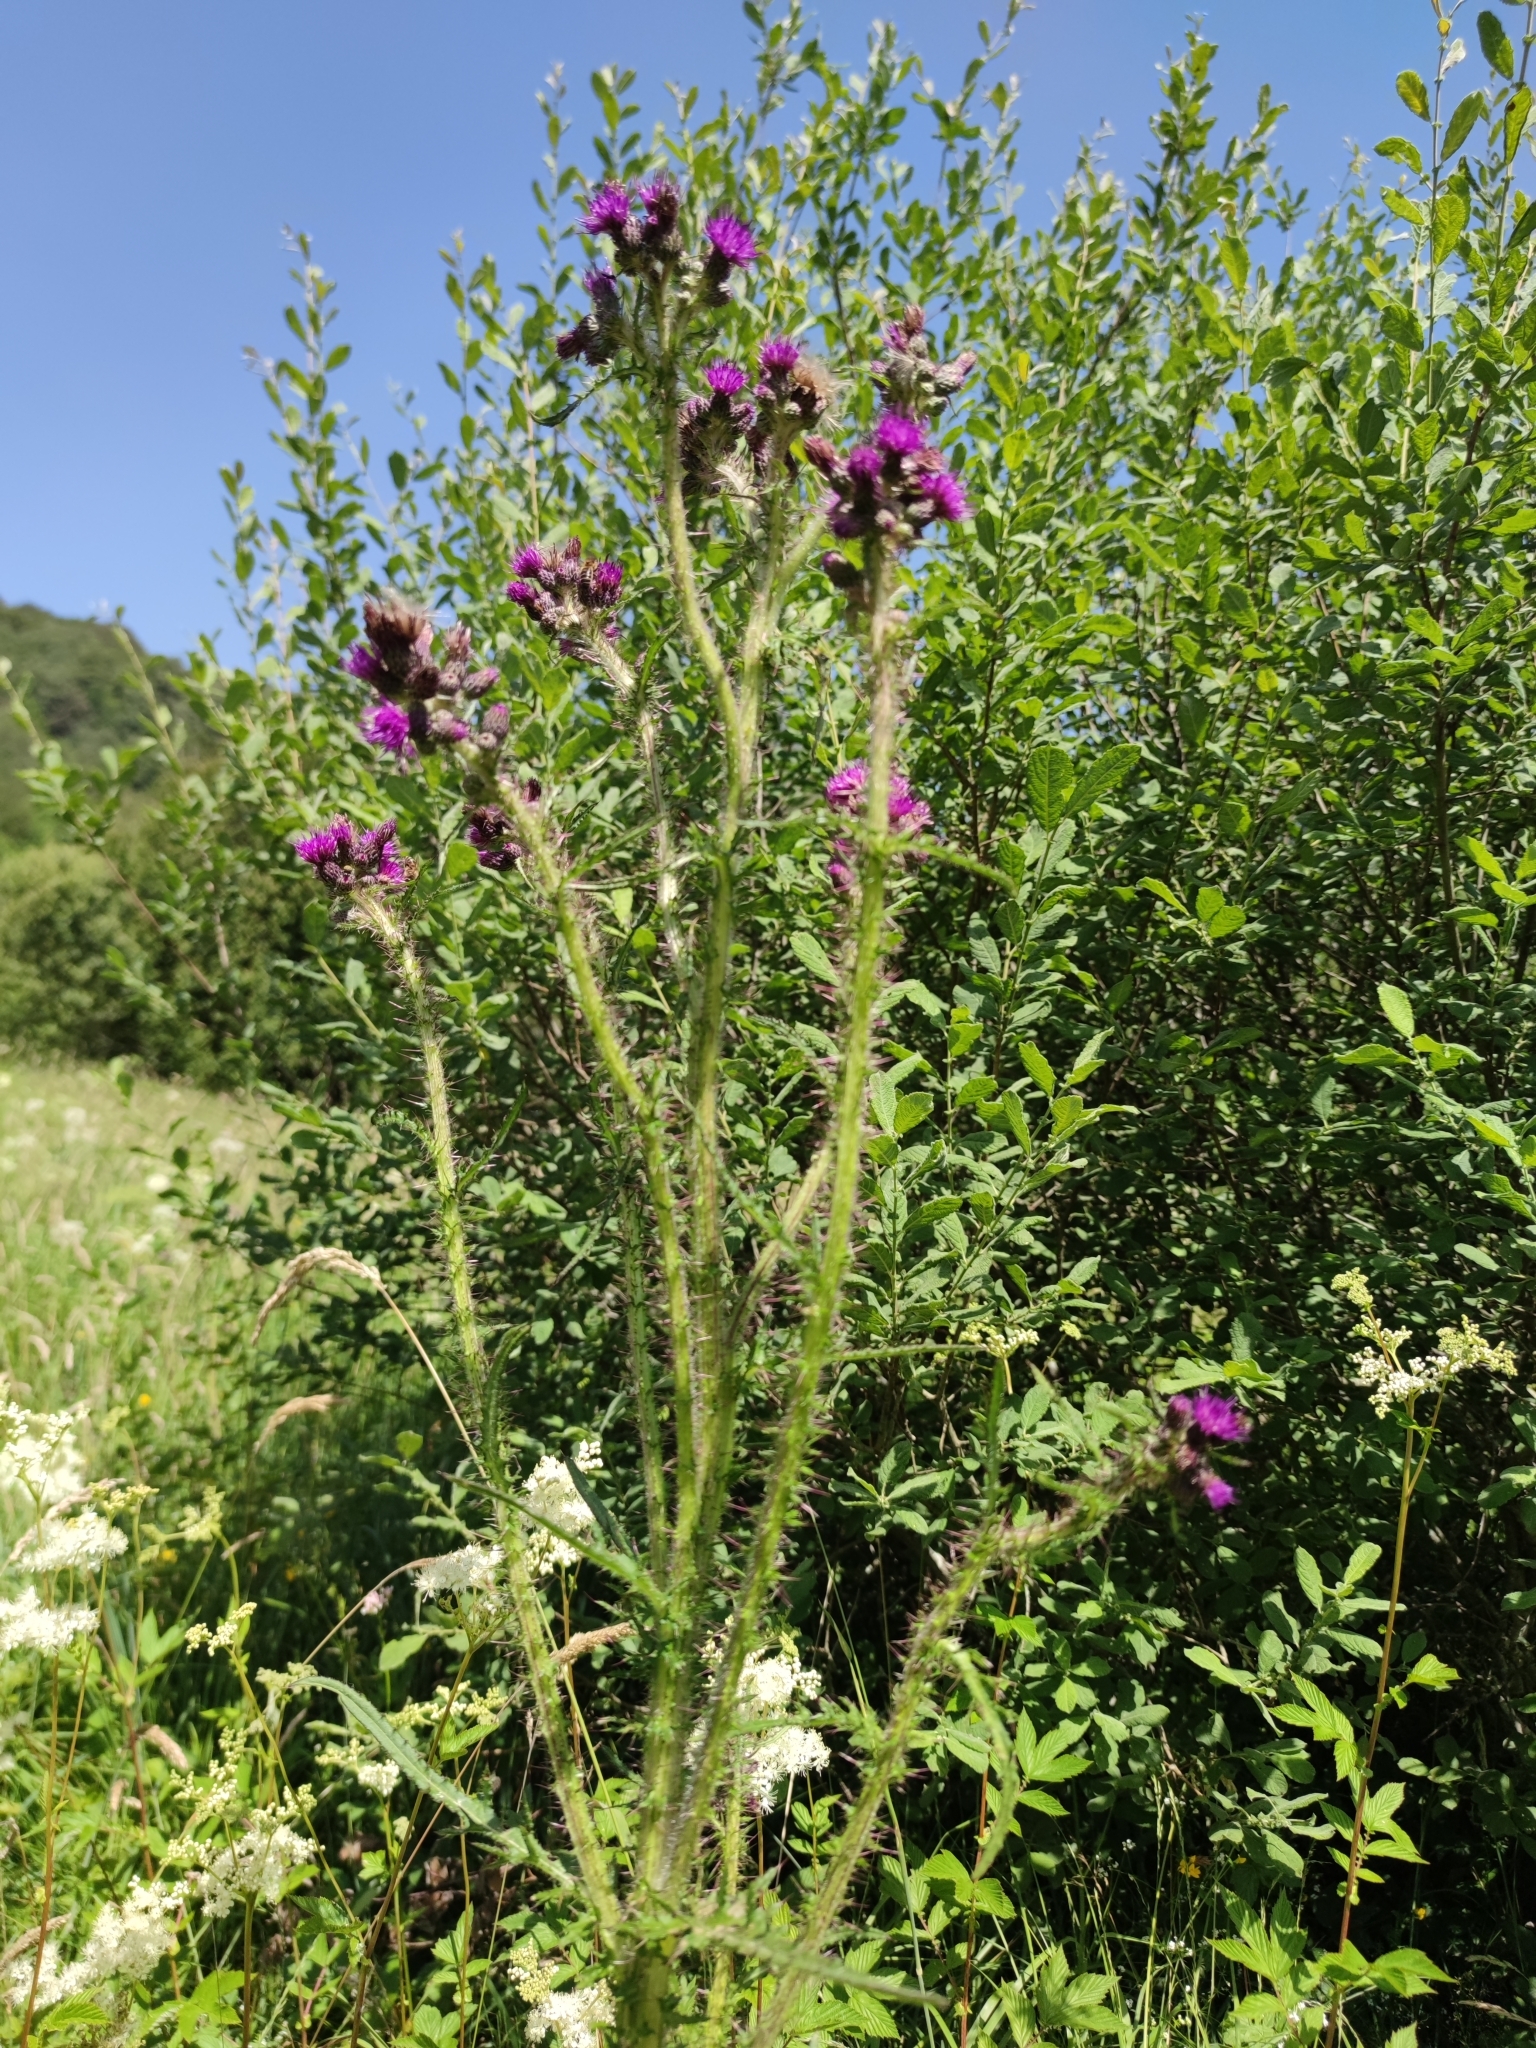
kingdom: Plantae
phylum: Tracheophyta
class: Magnoliopsida
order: Asterales
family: Asteraceae
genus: Cirsium
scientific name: Cirsium palustre
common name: Marsh thistle
